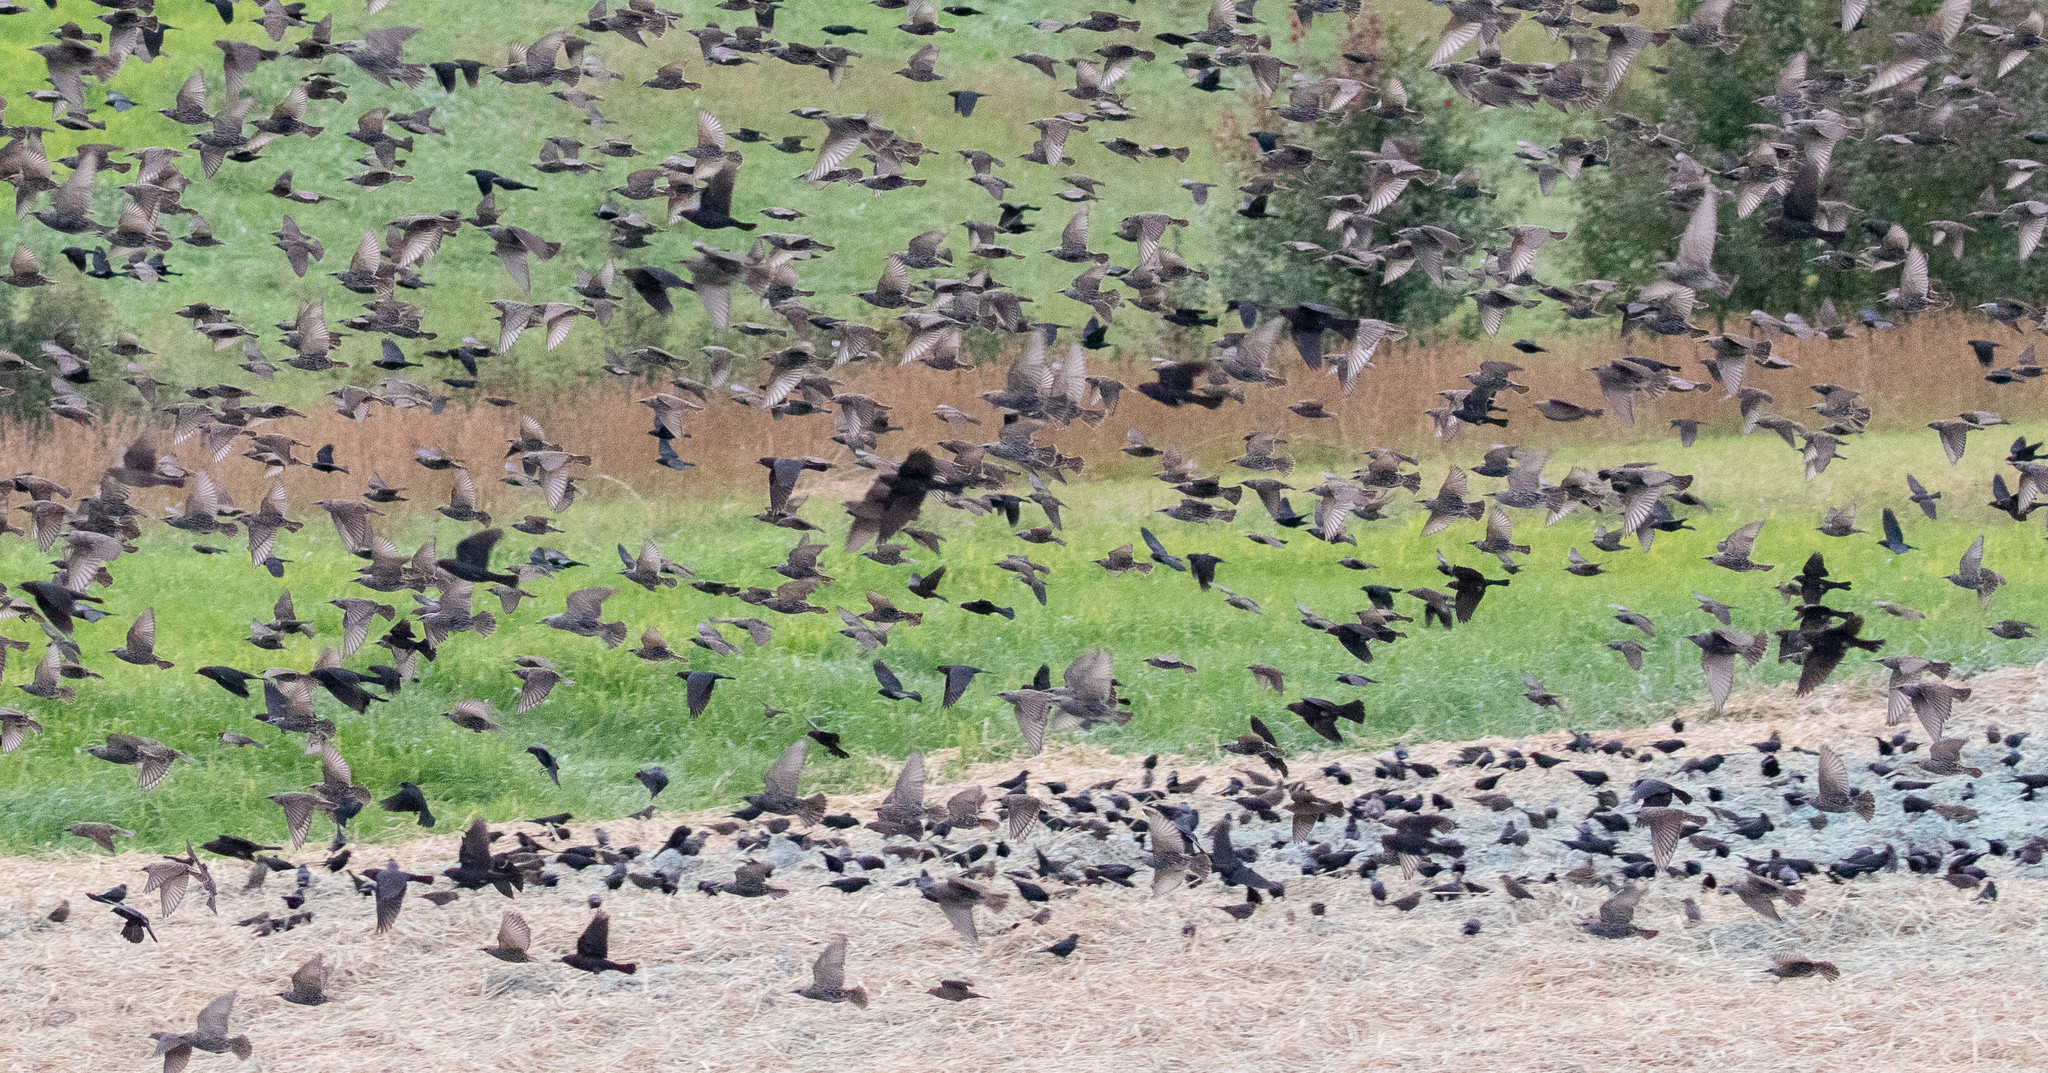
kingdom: Animalia
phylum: Chordata
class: Aves
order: Passeriformes
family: Sturnidae
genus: Sturnus
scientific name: Sturnus vulgaris
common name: Common starling
